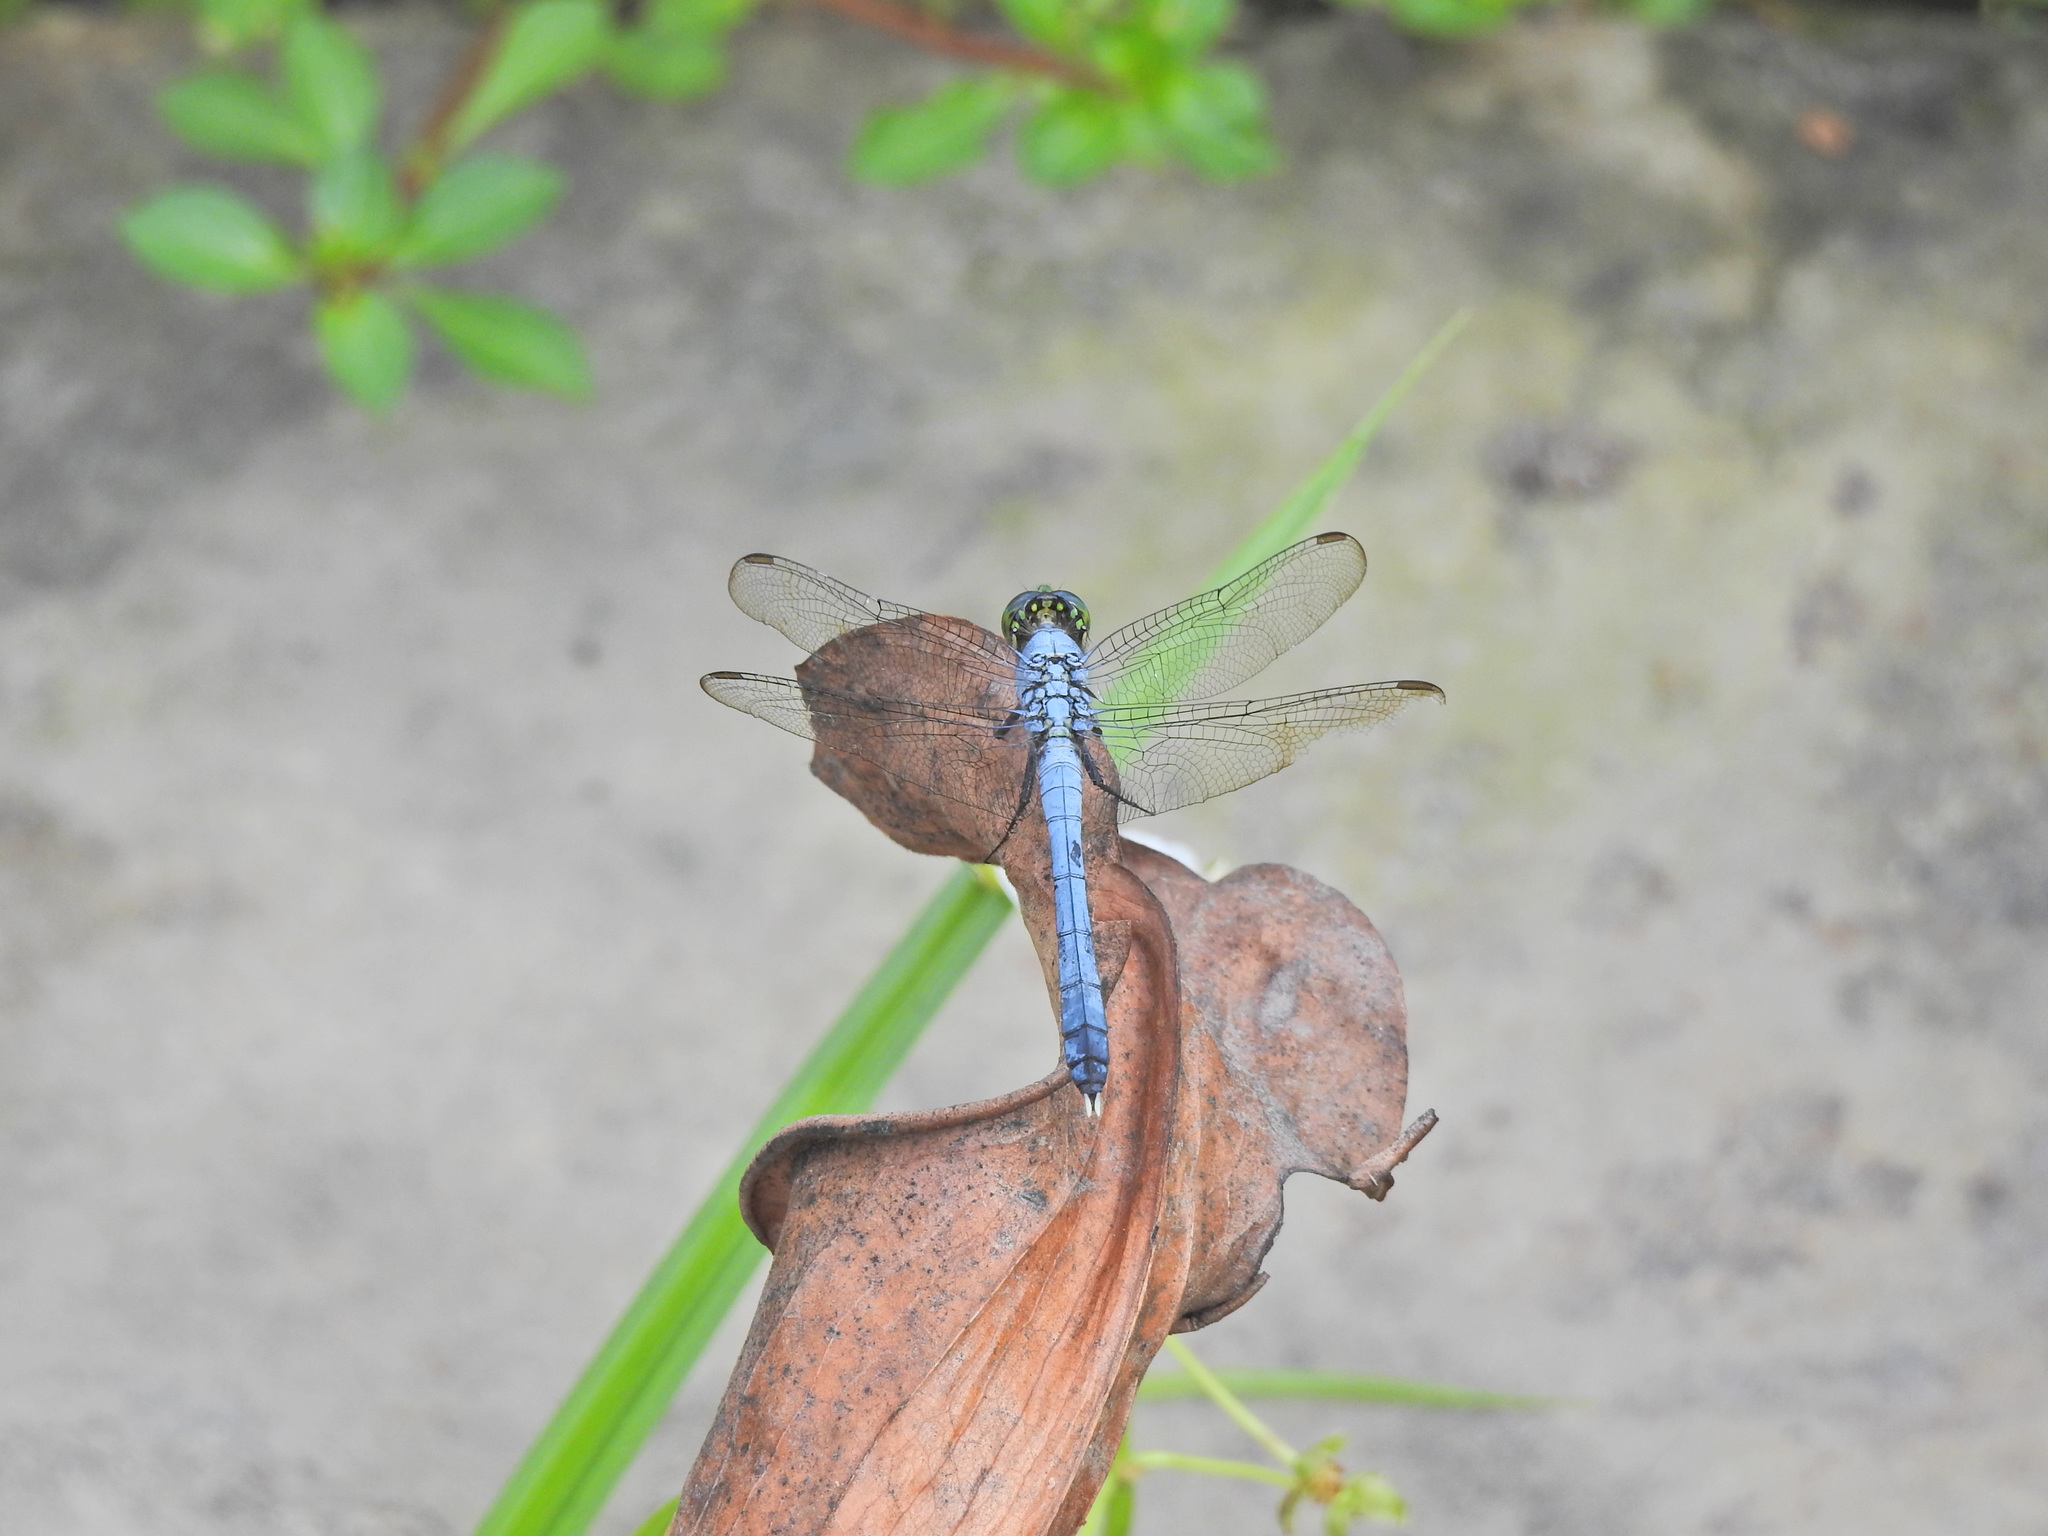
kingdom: Animalia
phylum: Arthropoda
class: Insecta
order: Odonata
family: Libellulidae
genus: Erythemis
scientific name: Erythemis simplicicollis
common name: Eastern pondhawk
